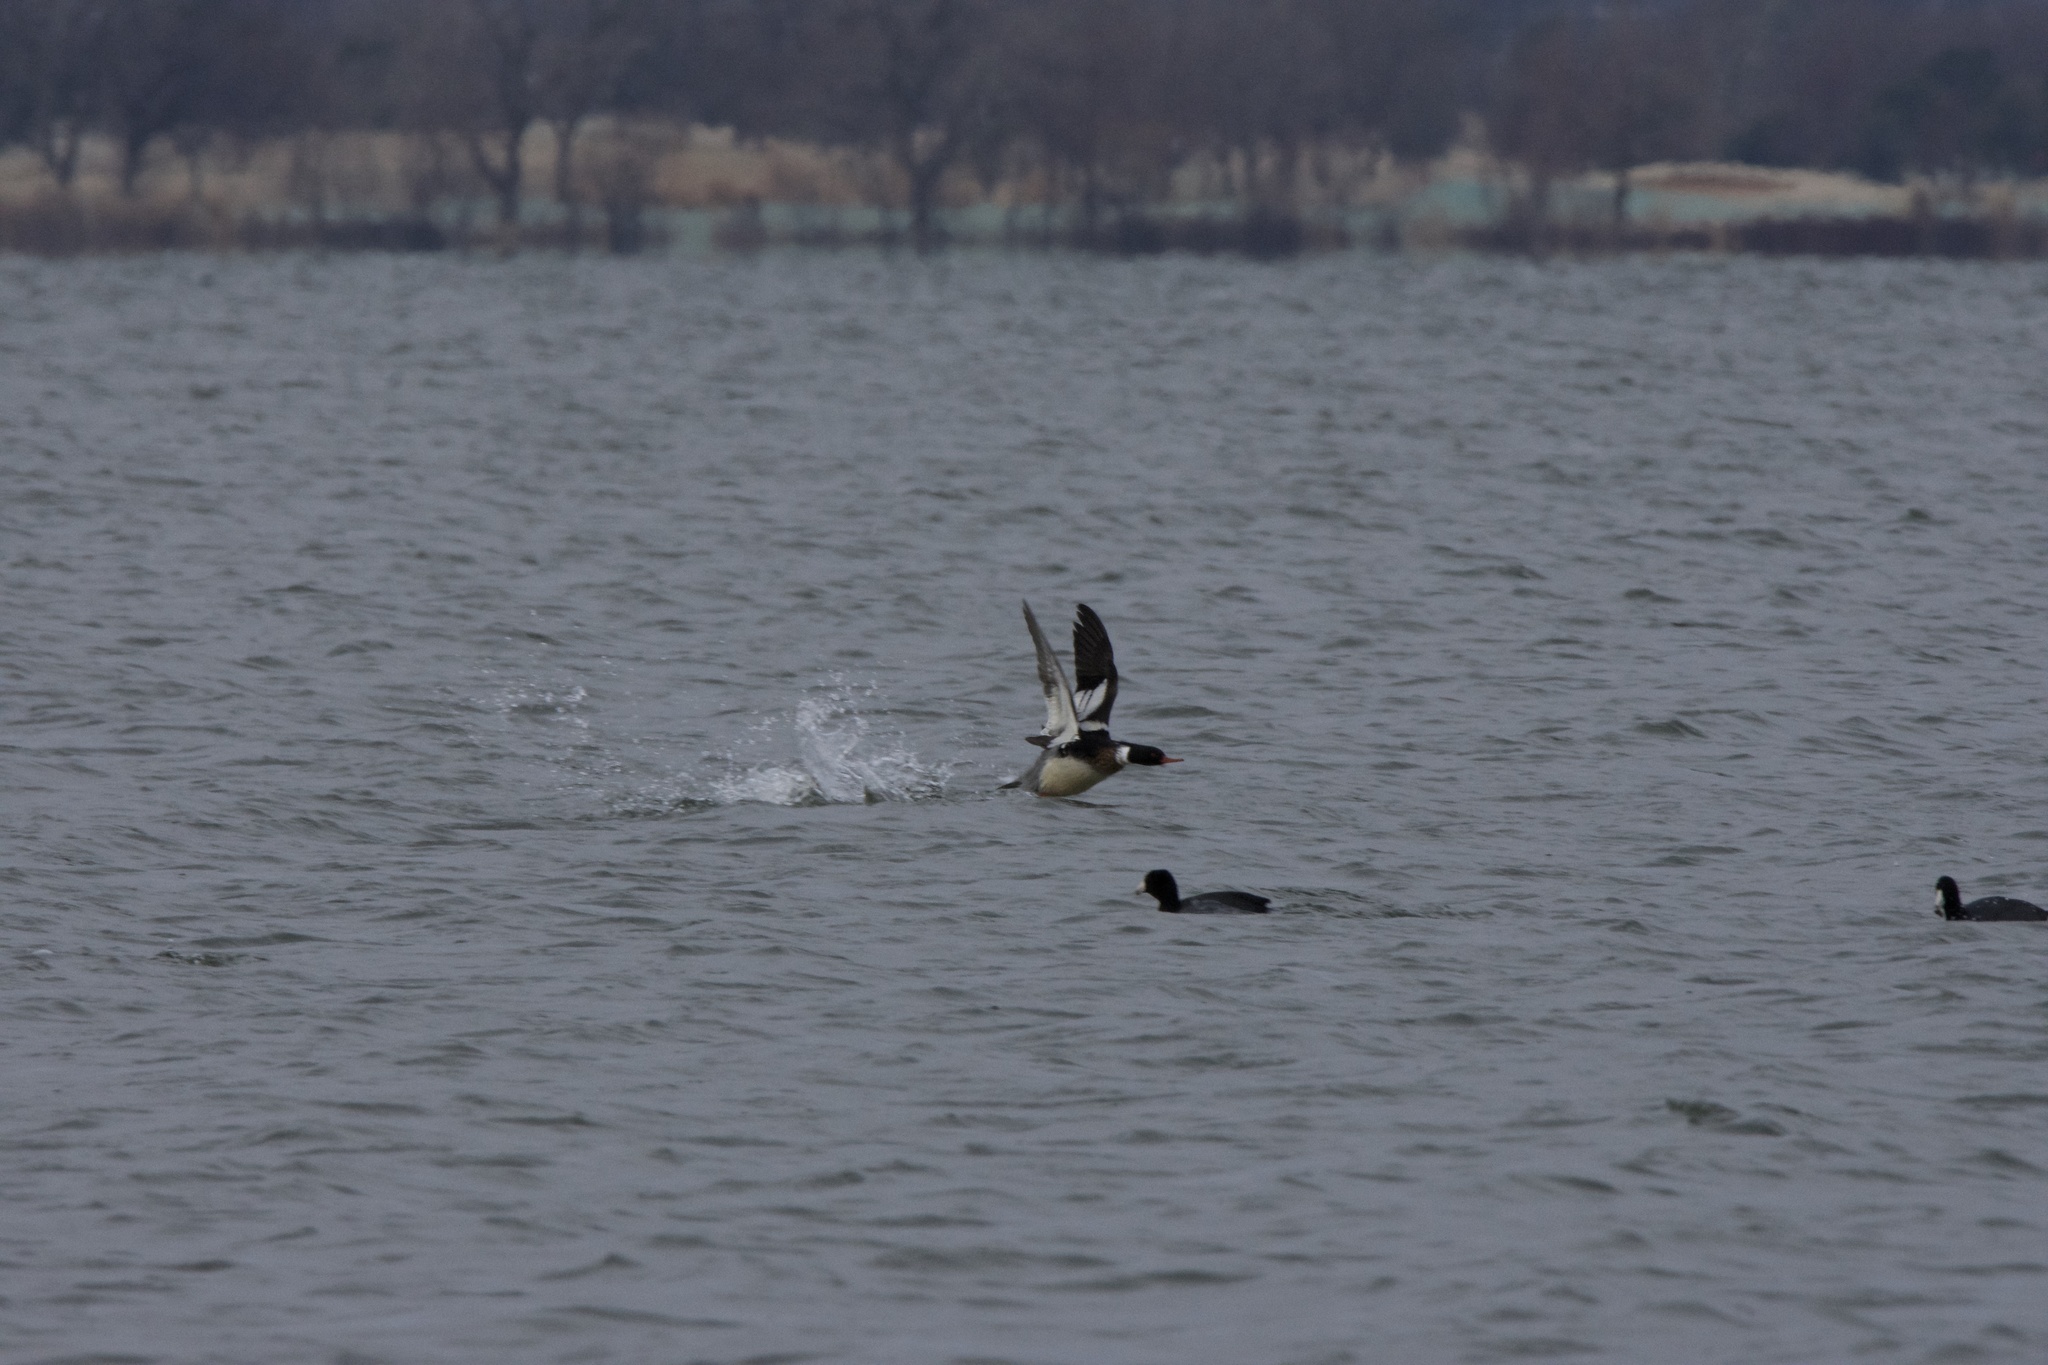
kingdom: Animalia
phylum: Chordata
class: Aves
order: Anseriformes
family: Anatidae
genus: Mergus
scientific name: Mergus serrator
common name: Red-breasted merganser
